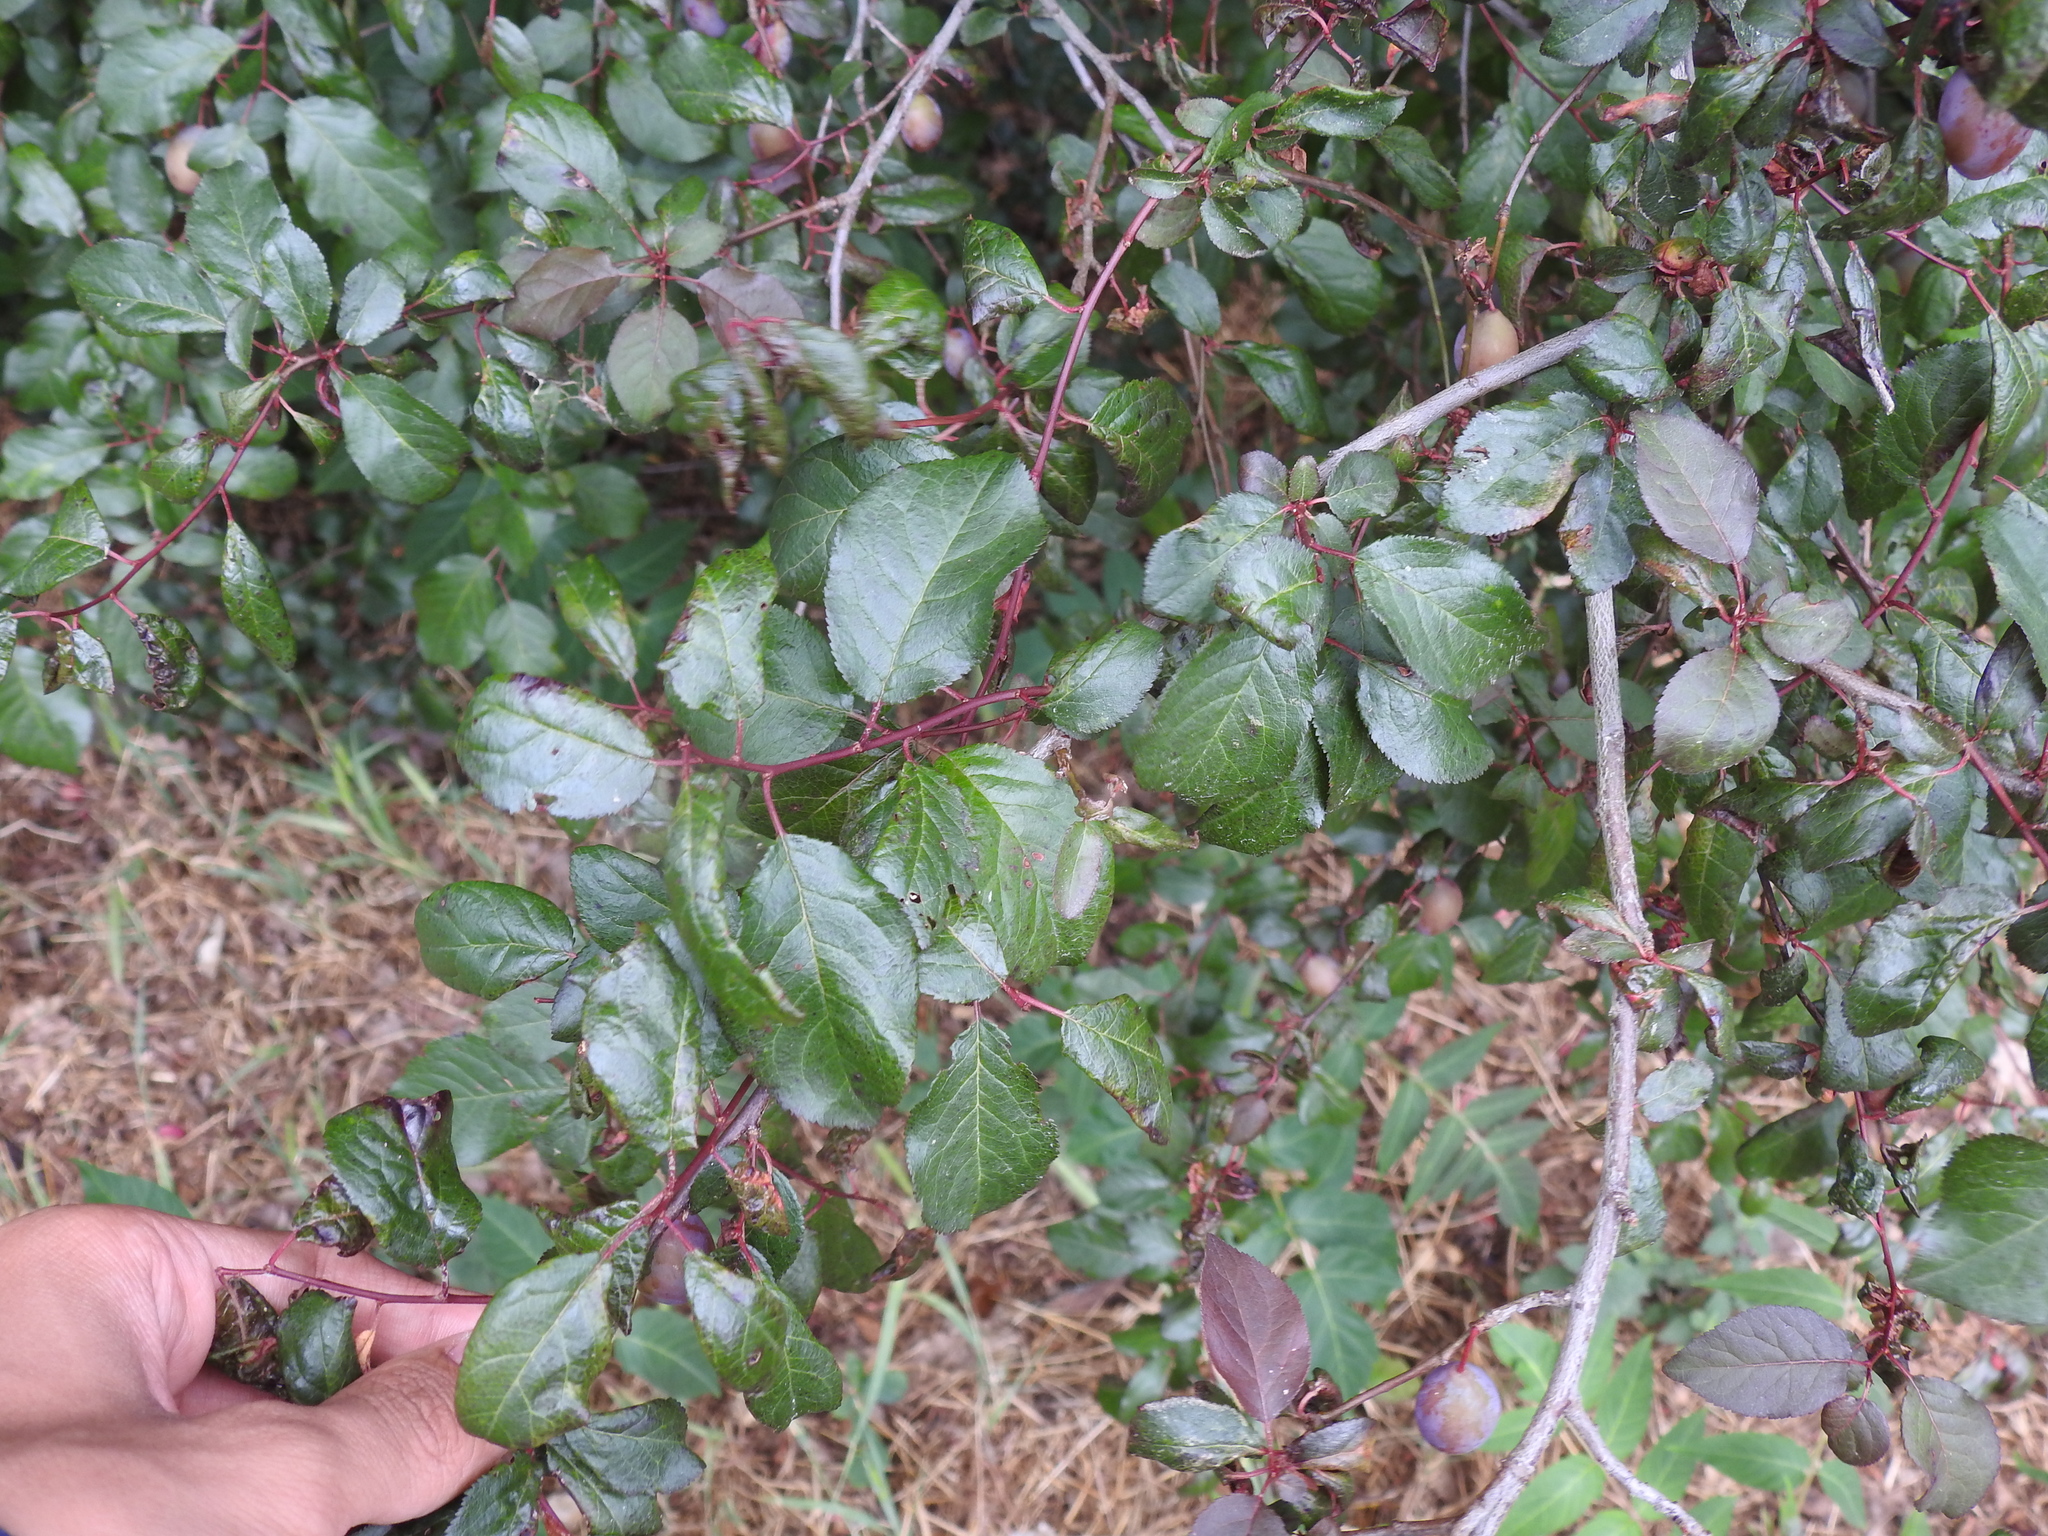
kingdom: Plantae
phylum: Tracheophyta
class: Magnoliopsida
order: Rosales
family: Rosaceae
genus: Prunus
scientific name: Prunus cerasifera
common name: Cherry plum
